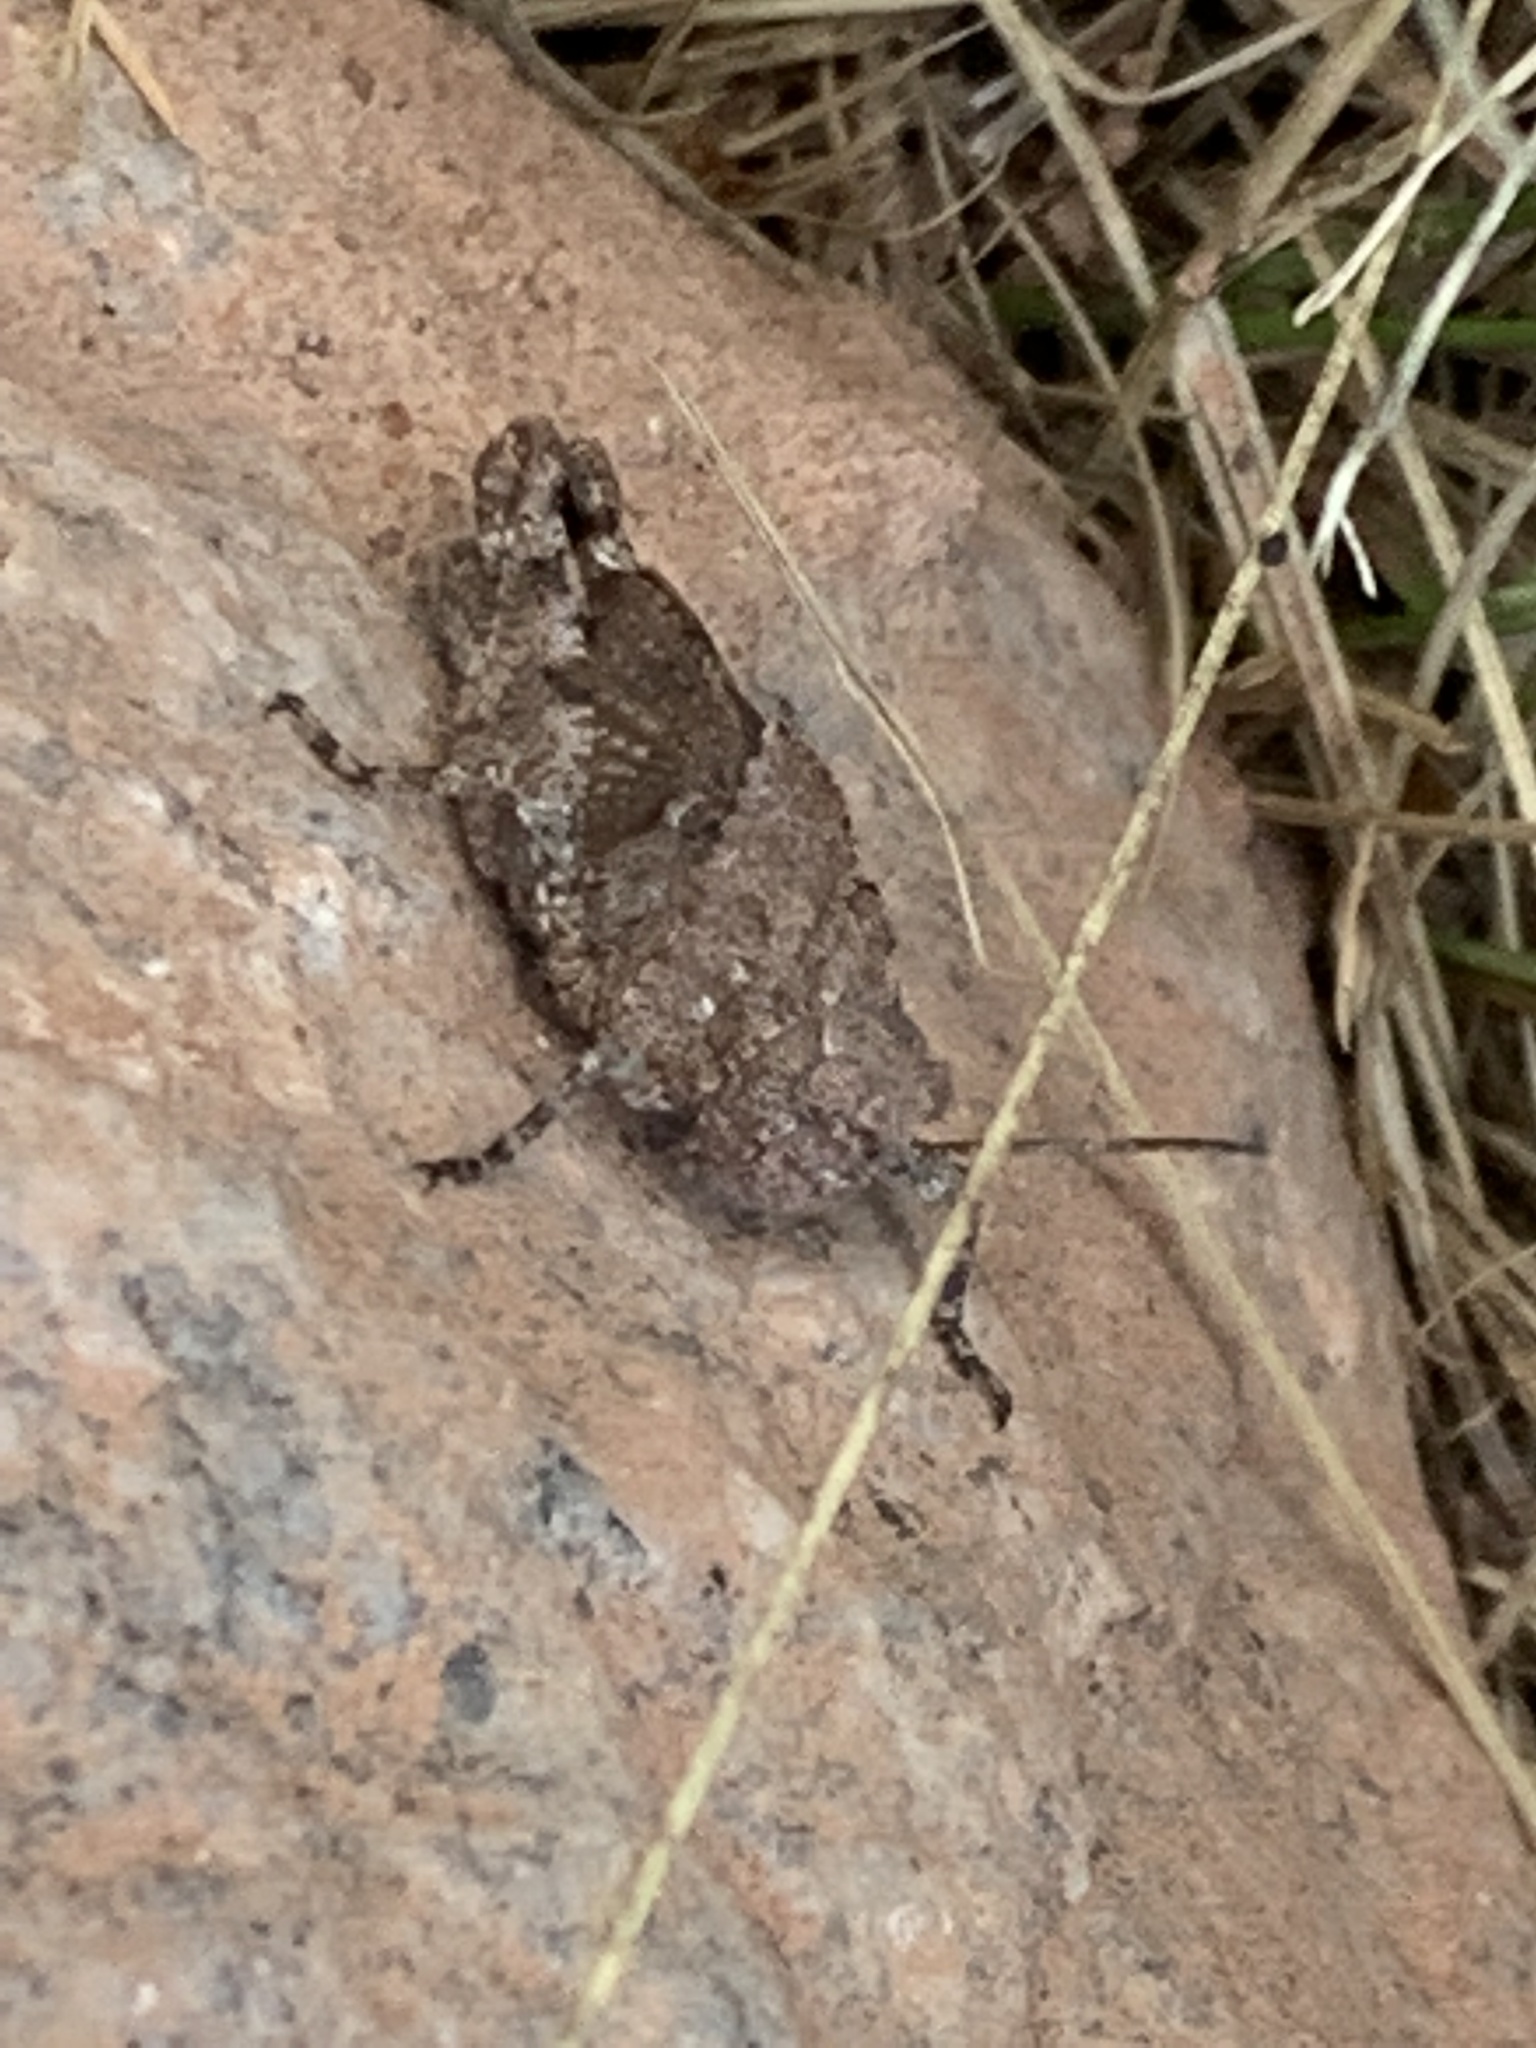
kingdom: Animalia
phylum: Arthropoda
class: Insecta
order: Orthoptera
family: Acrididae
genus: Trimerotropis
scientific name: Trimerotropis verruculata
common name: Crackling forest grasshopper
